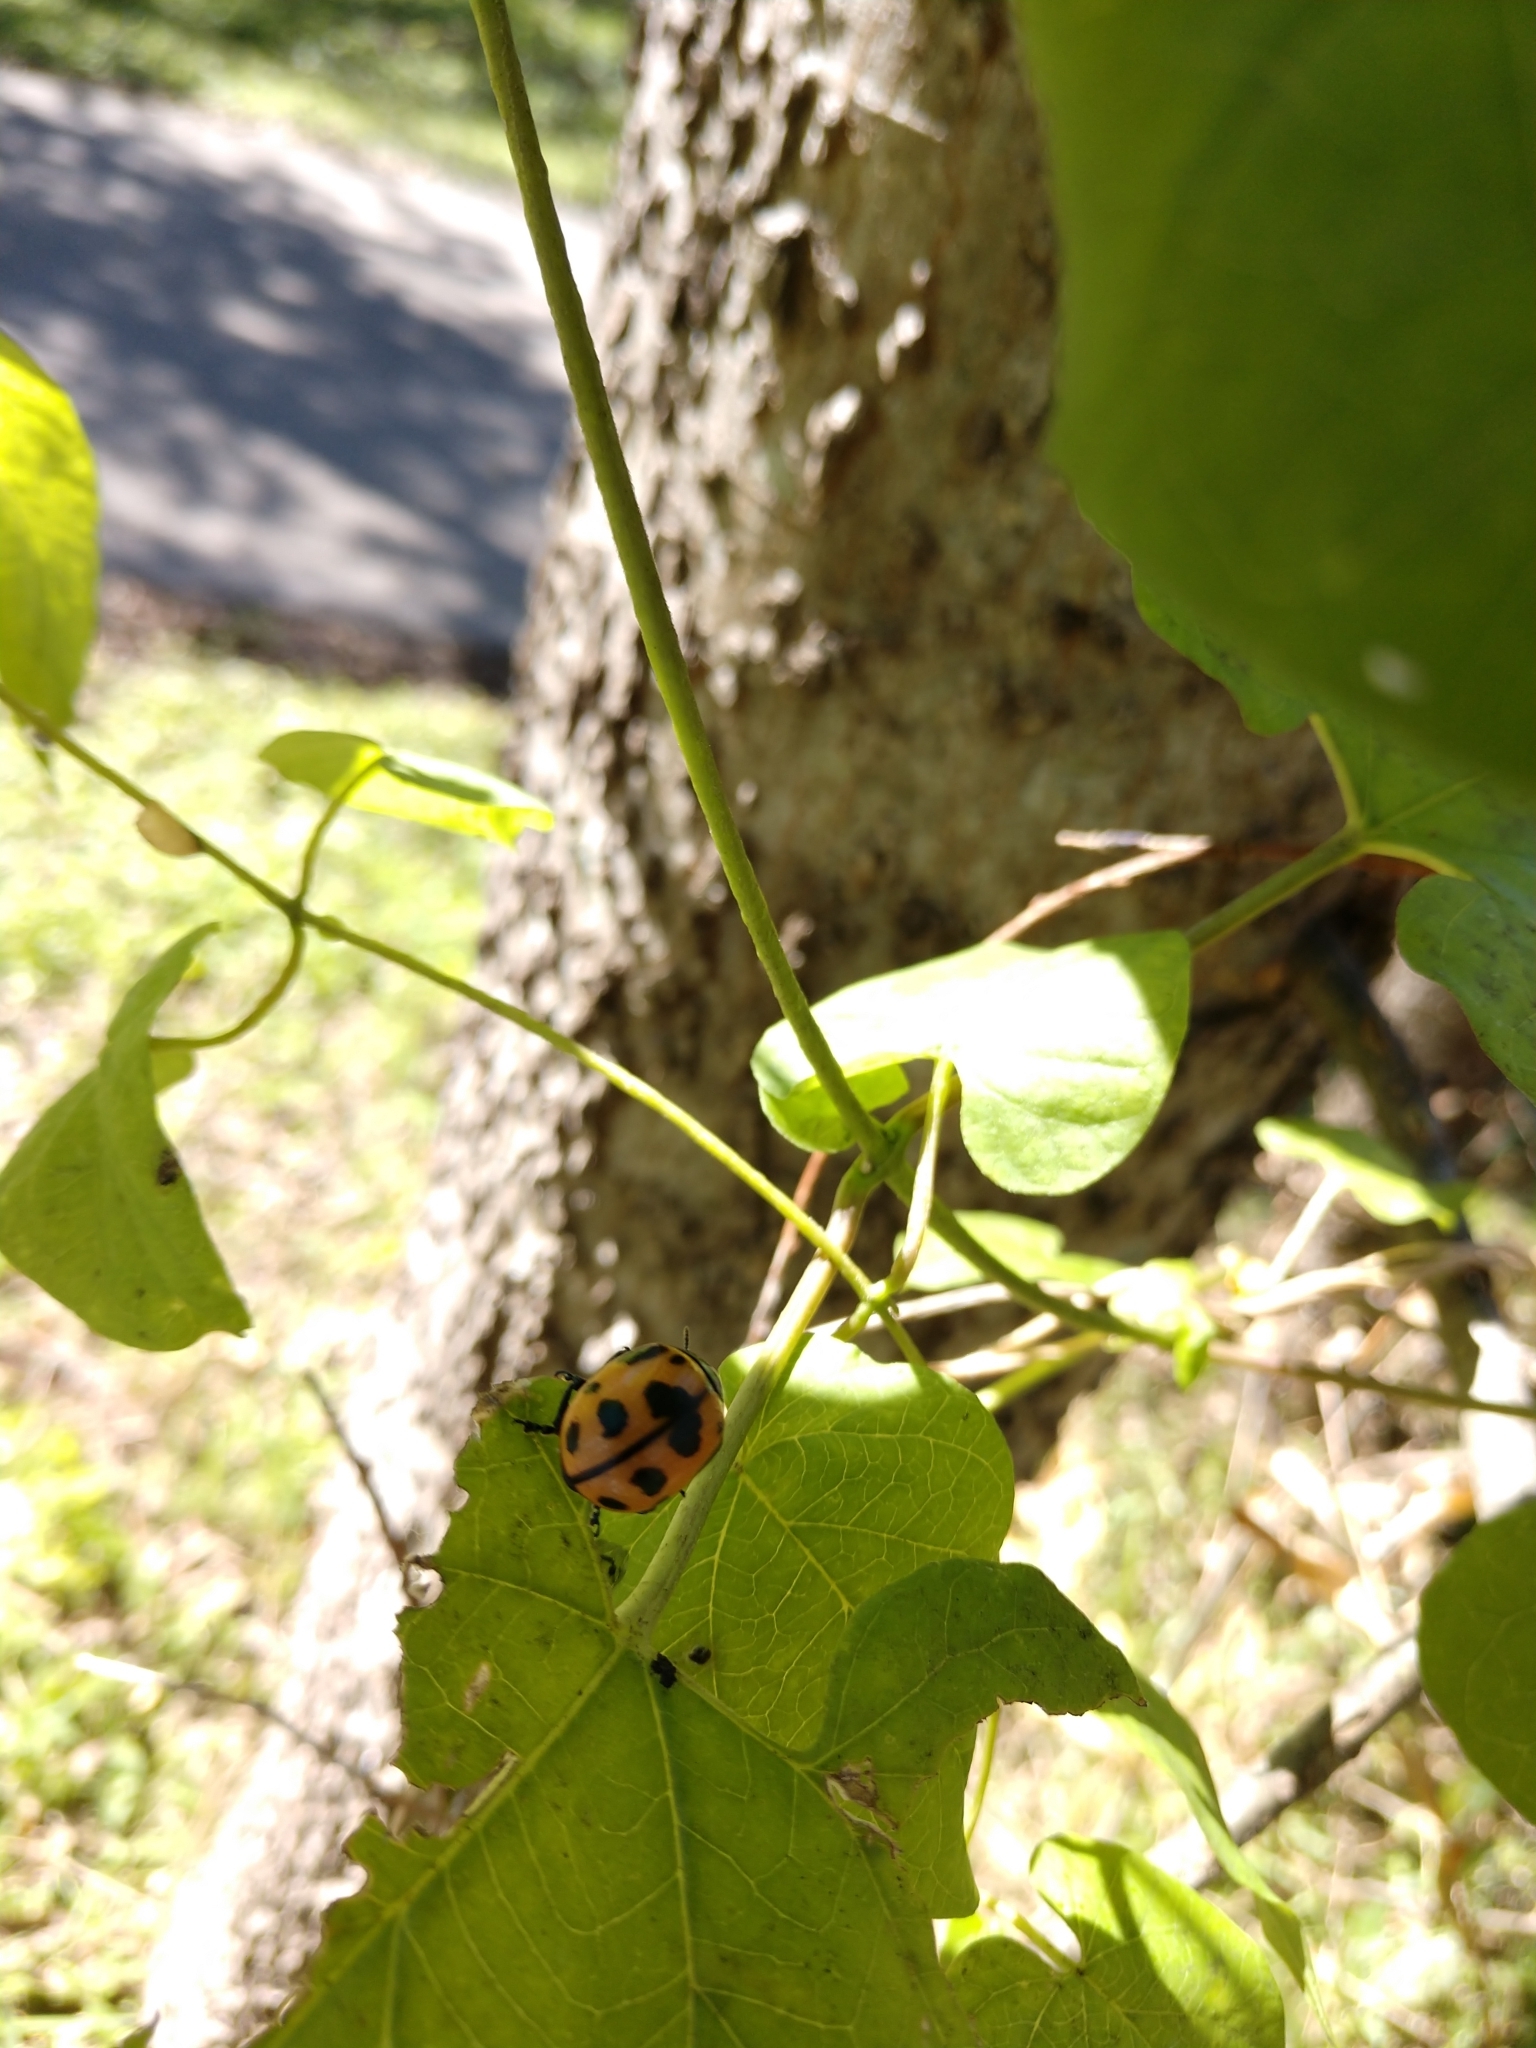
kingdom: Animalia
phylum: Arthropoda
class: Insecta
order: Coleoptera
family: Chrysomelidae
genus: Labidomera
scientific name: Labidomera clivicollis
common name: Swamp milkweed leaf beetle
